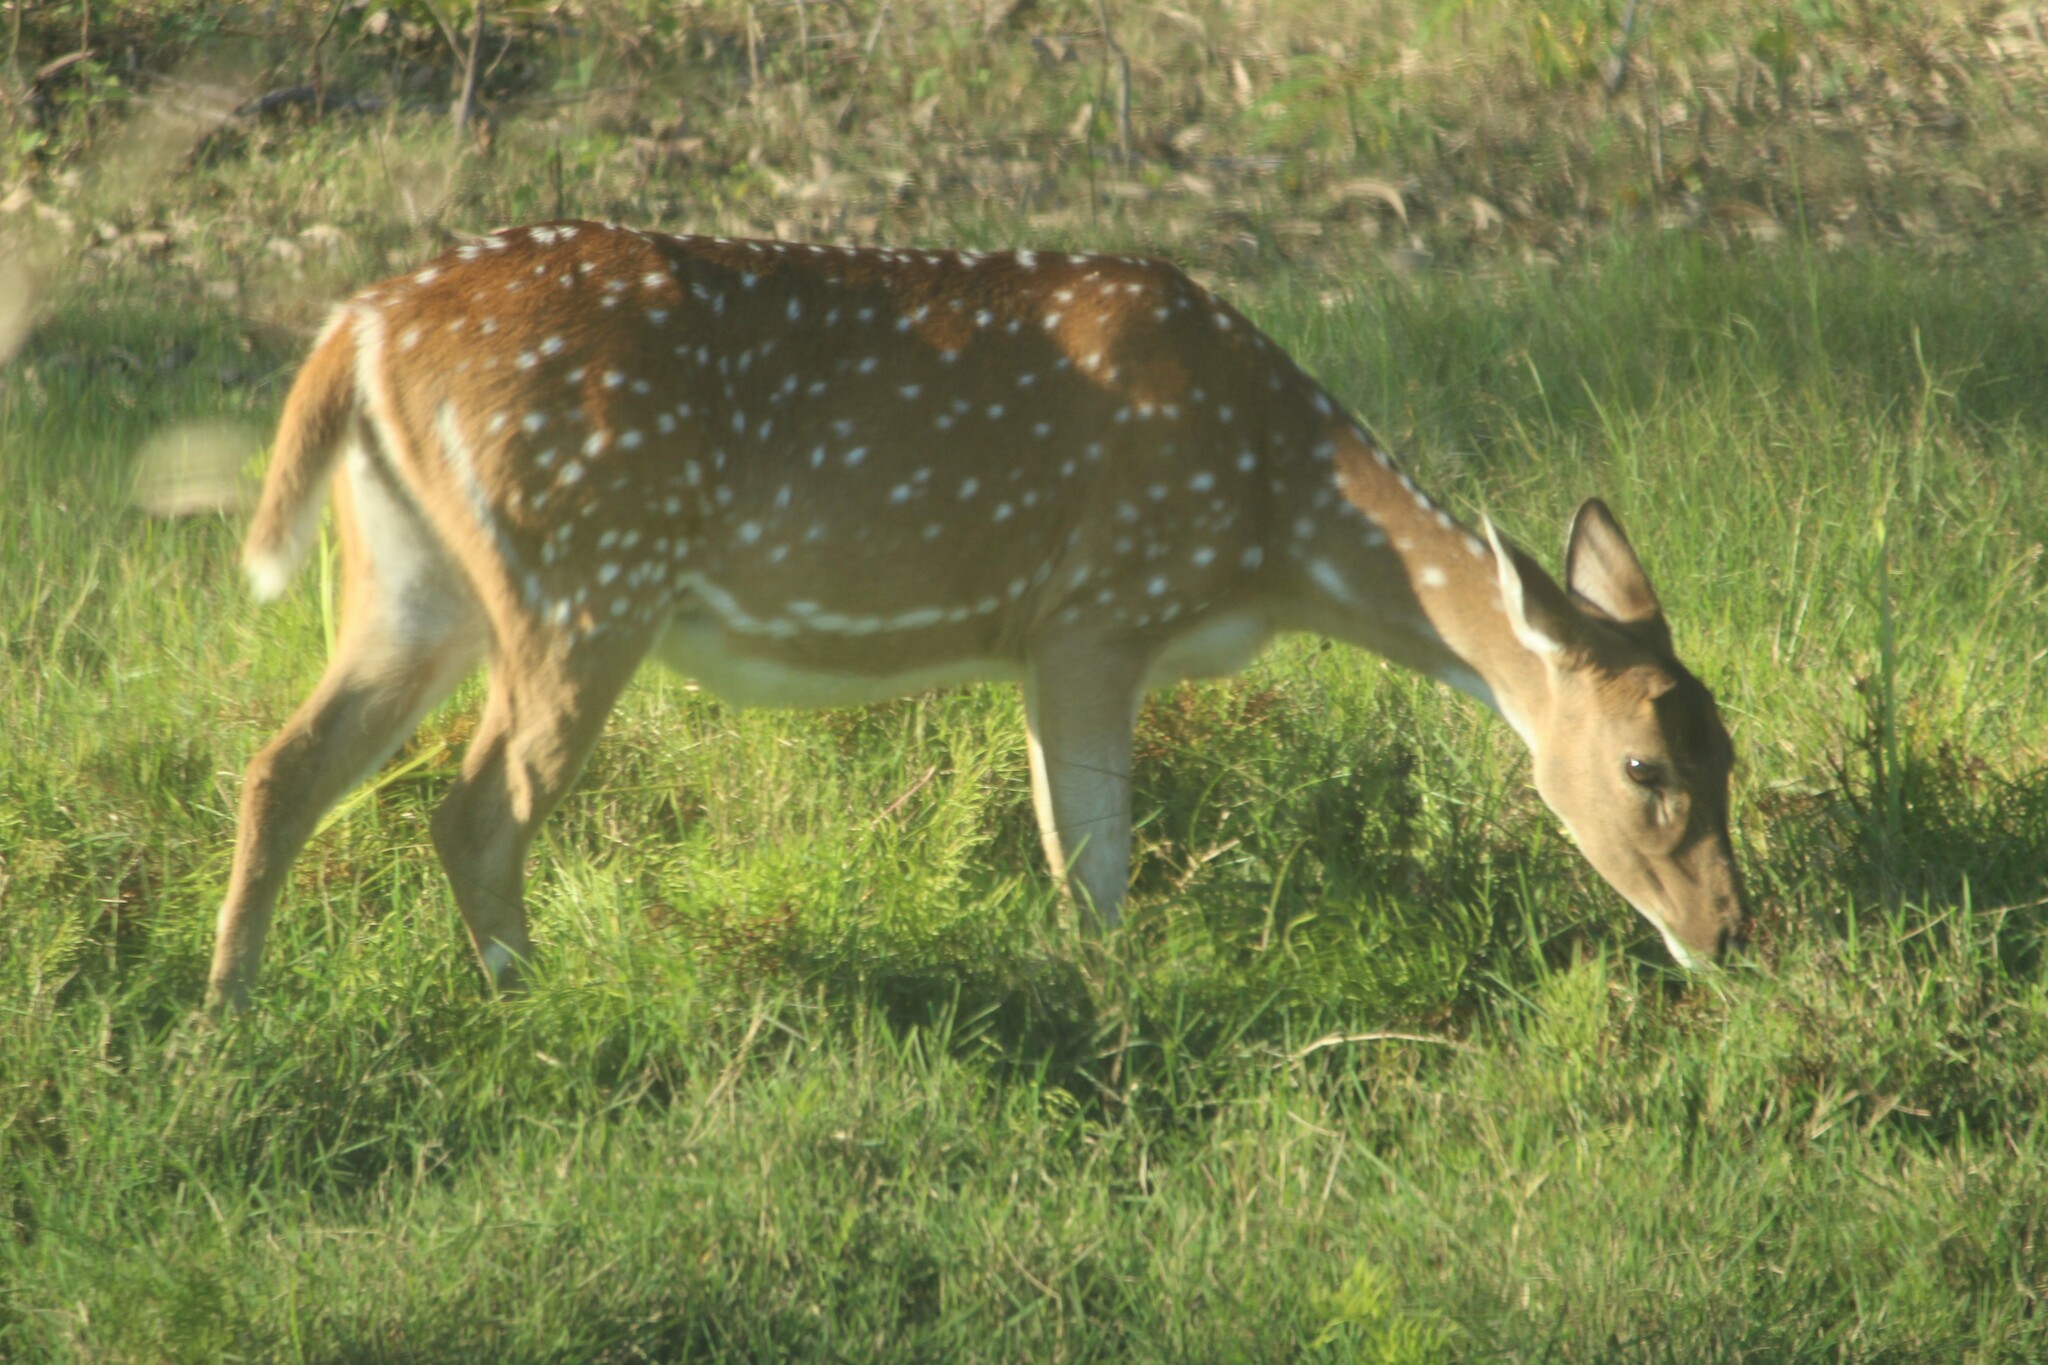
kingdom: Animalia
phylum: Chordata
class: Mammalia
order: Artiodactyla
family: Cervidae
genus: Axis
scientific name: Axis axis
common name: Chital
